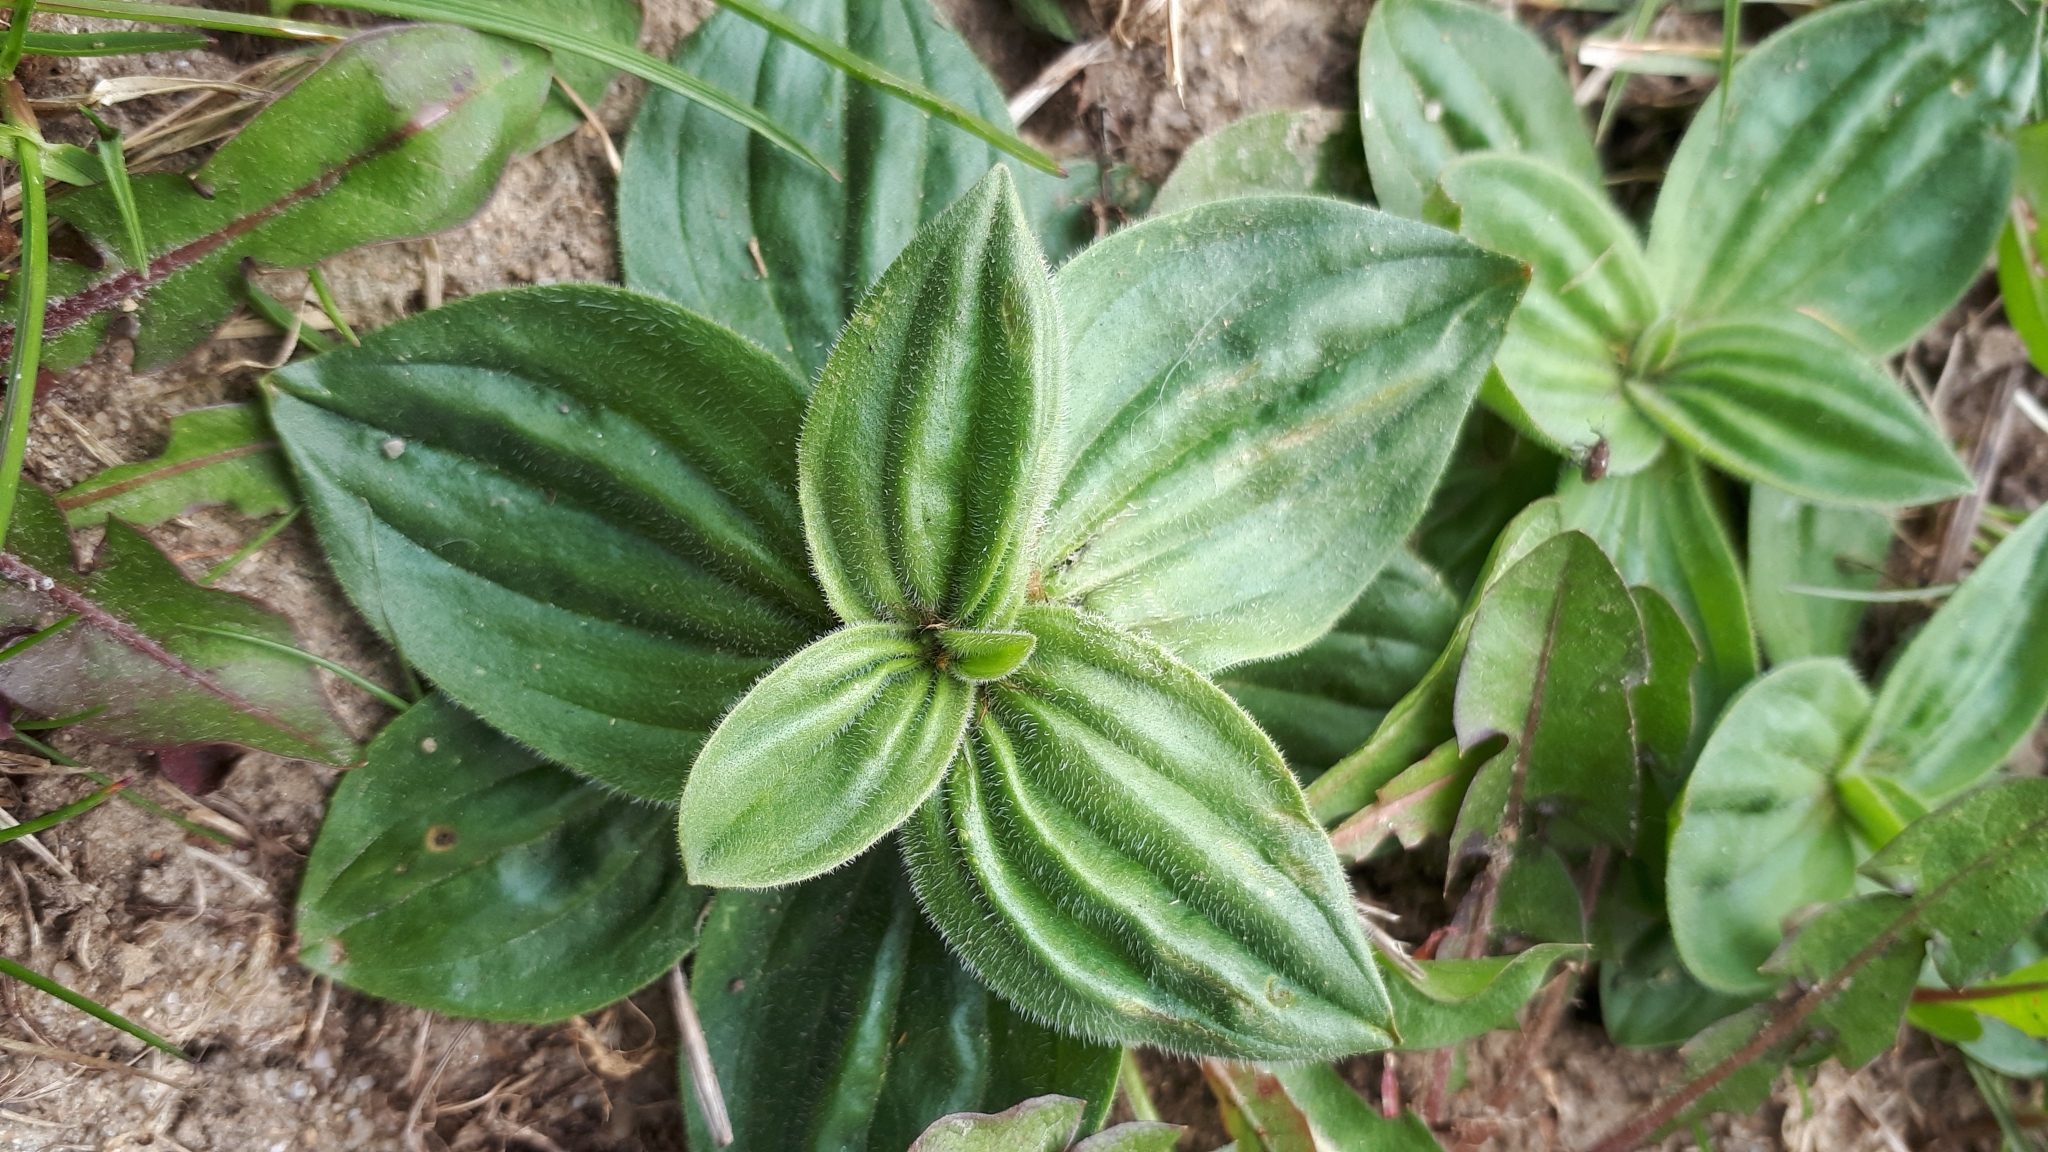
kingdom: Plantae
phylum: Tracheophyta
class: Magnoliopsida
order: Lamiales
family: Plantaginaceae
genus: Plantago
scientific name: Plantago media
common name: Hoary plantain
